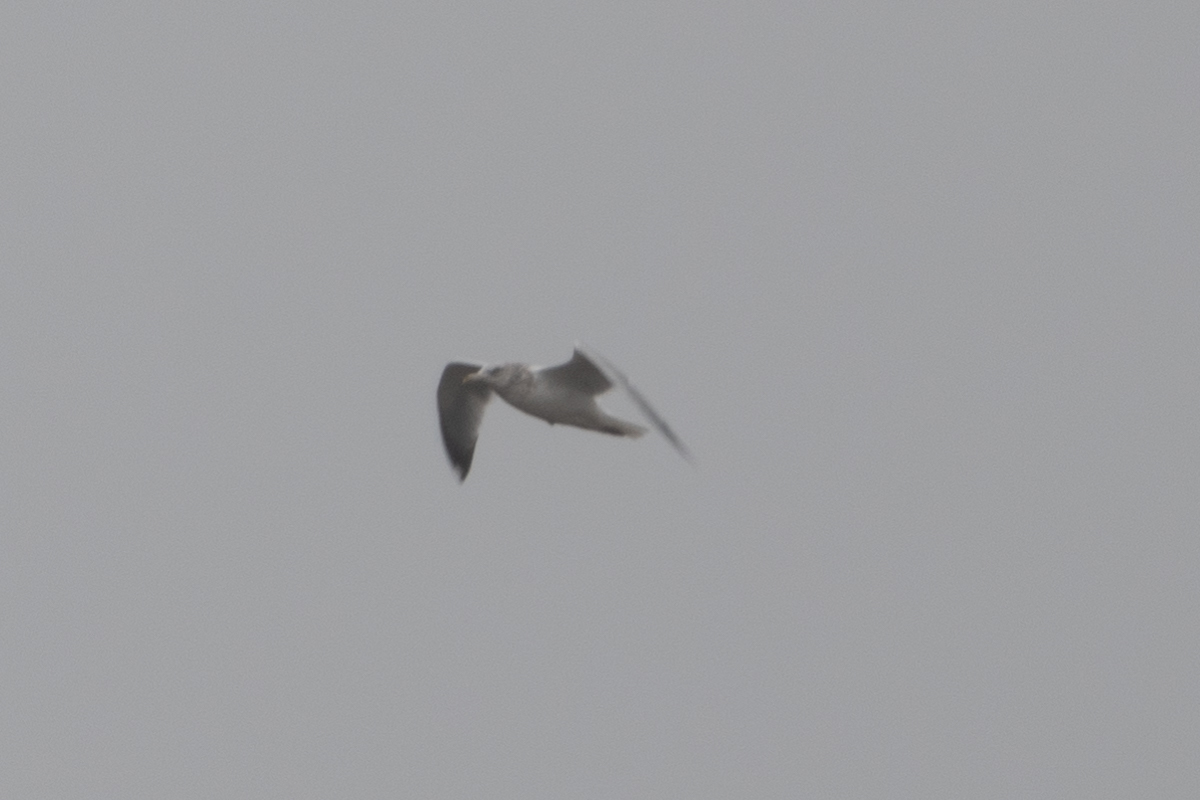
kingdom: Animalia
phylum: Chordata
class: Aves
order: Charadriiformes
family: Laridae
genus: Larus
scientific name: Larus argentatus
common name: Herring gull
